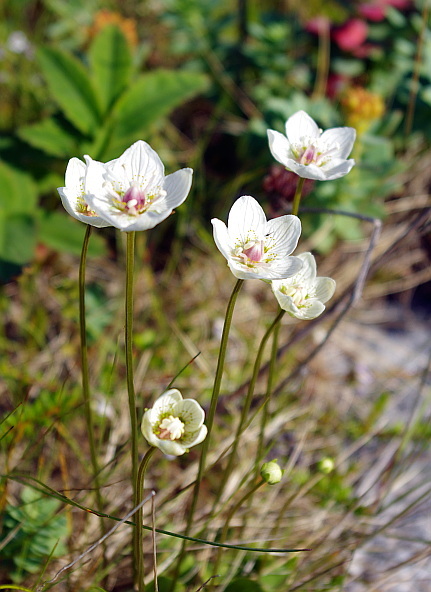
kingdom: Plantae
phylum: Tracheophyta
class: Magnoliopsida
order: Celastrales
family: Parnassiaceae
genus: Parnassia
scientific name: Parnassia palustris
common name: Grass-of-parnassus
